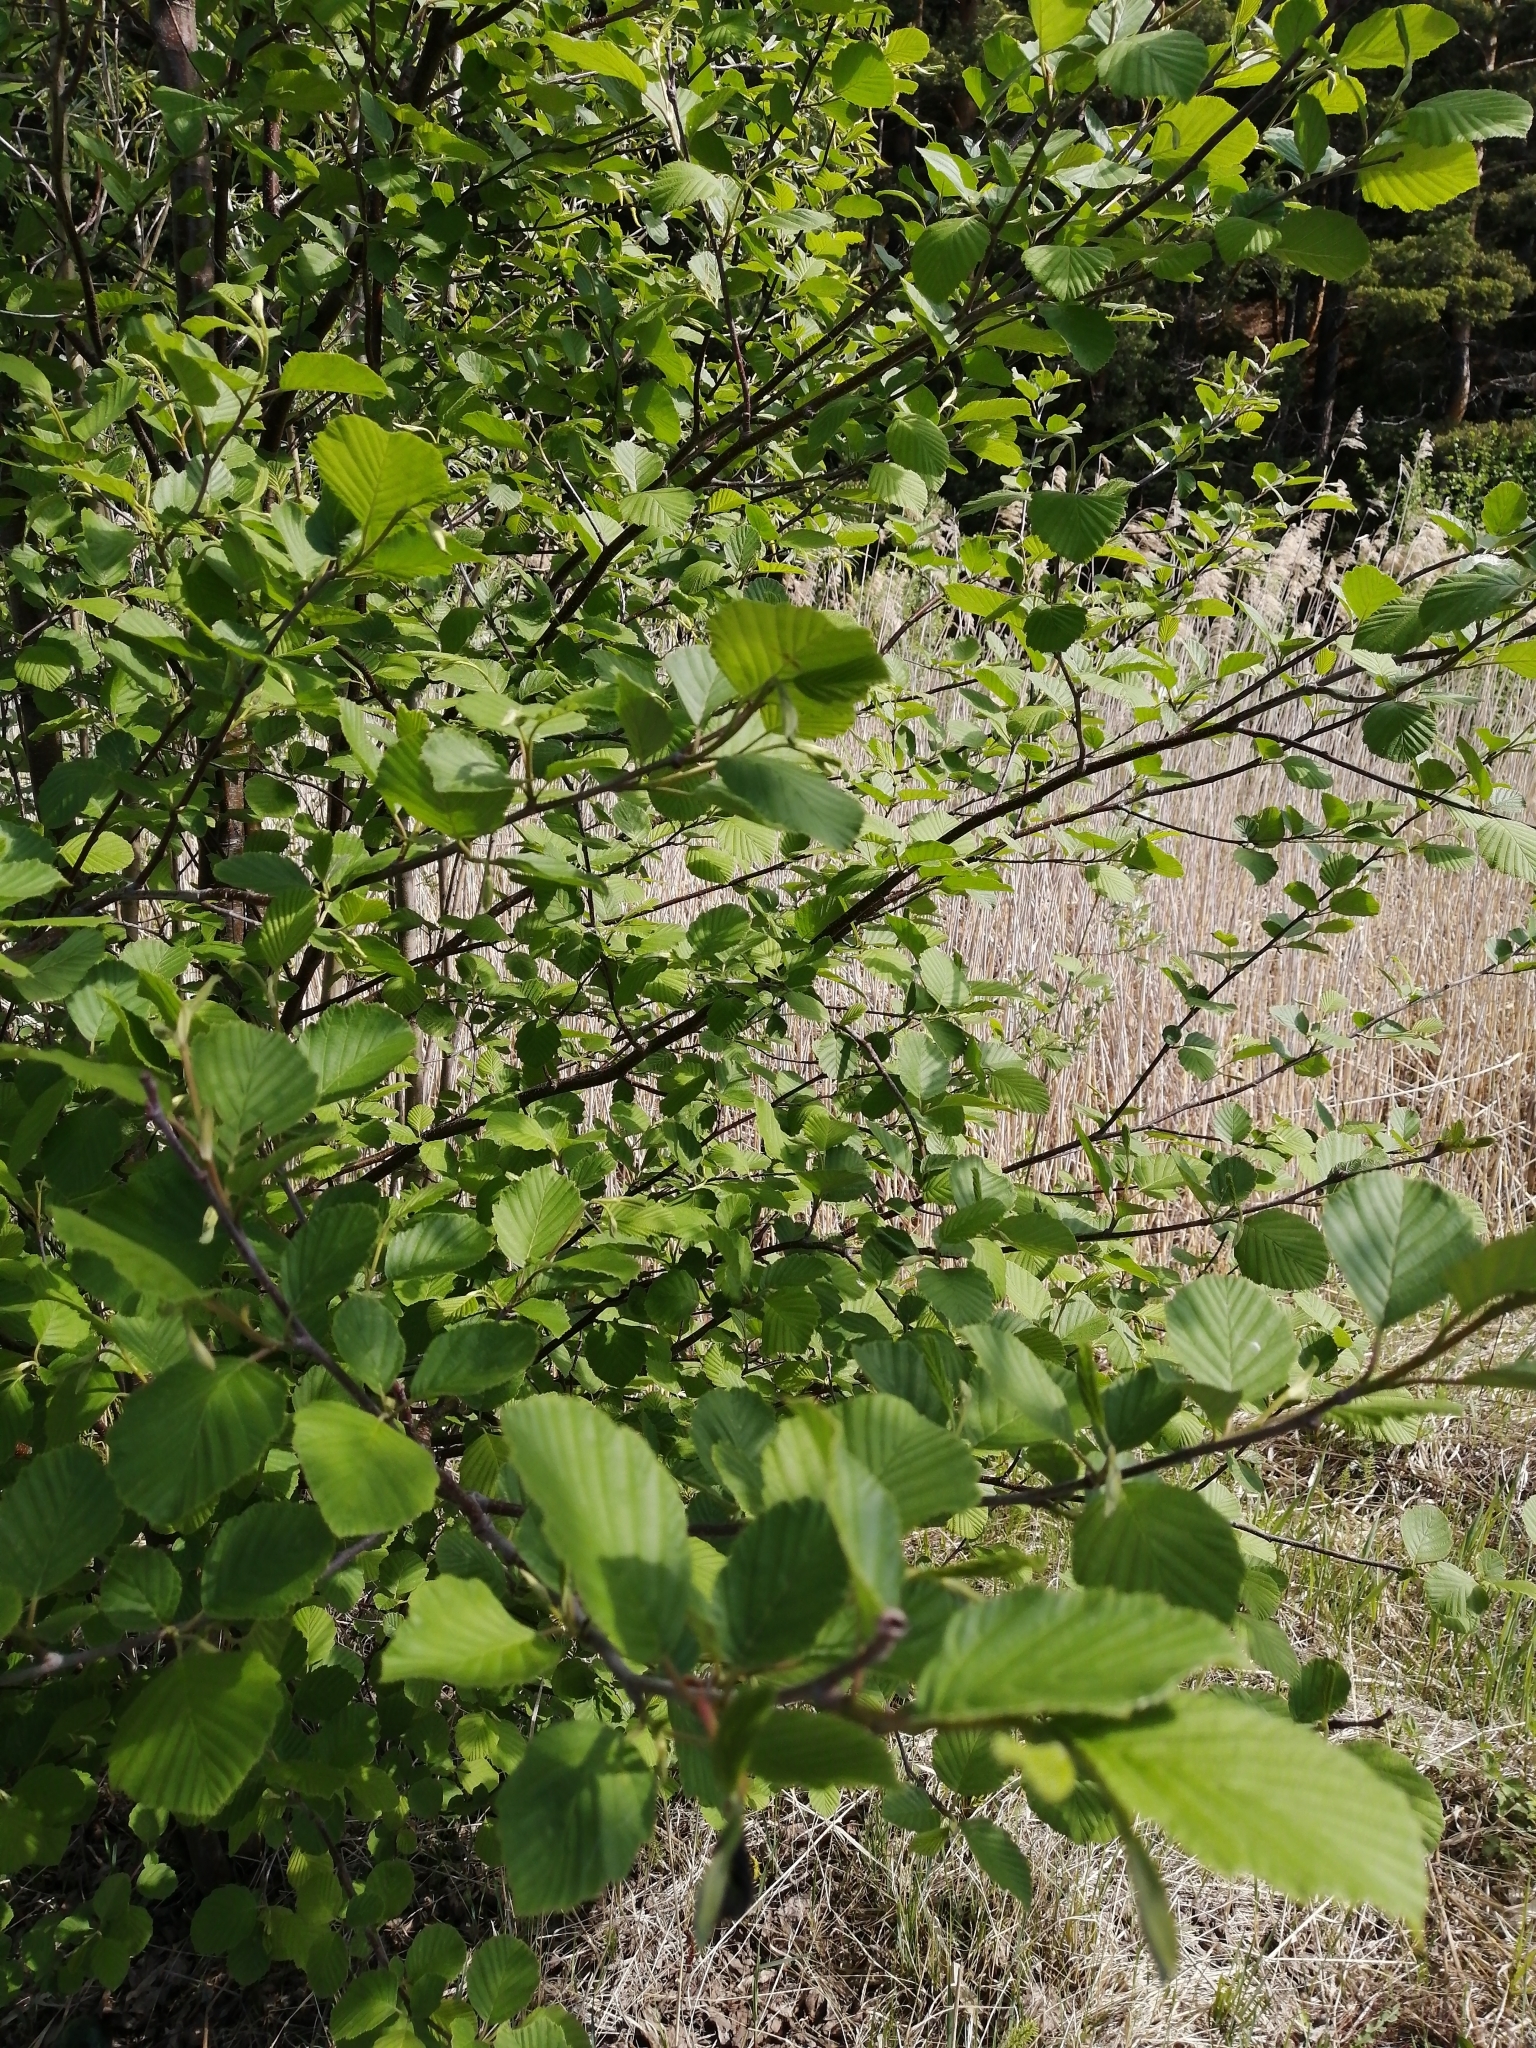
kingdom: Plantae
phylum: Tracheophyta
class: Magnoliopsida
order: Fagales
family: Betulaceae
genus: Alnus
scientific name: Alnus incana
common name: Grey alder
